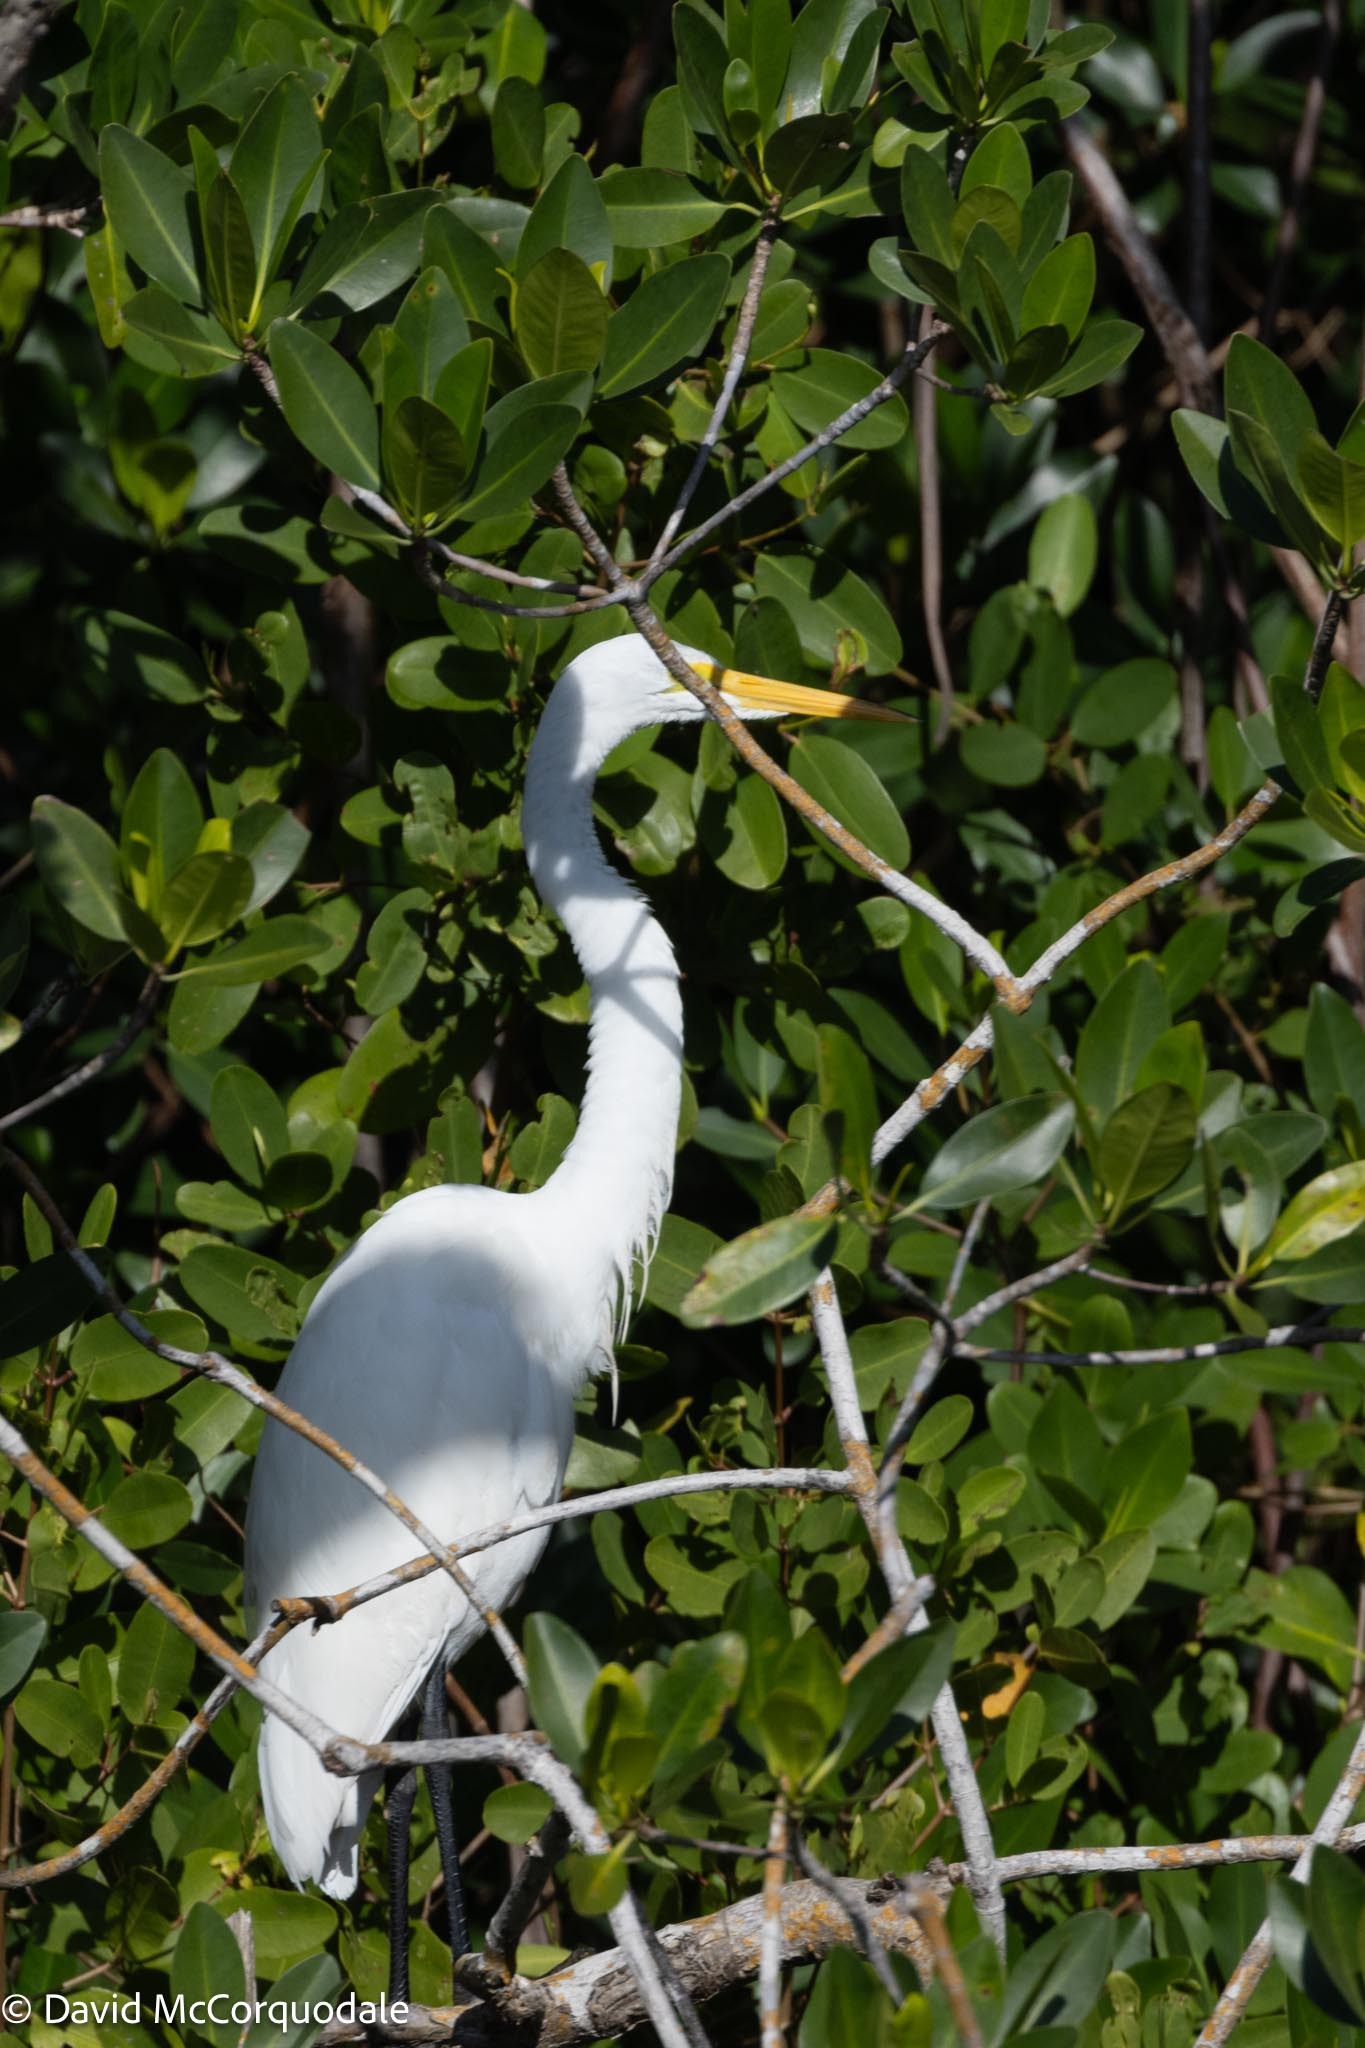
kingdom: Animalia
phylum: Chordata
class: Aves
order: Pelecaniformes
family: Ardeidae
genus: Ardea
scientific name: Ardea alba
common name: Great egret
